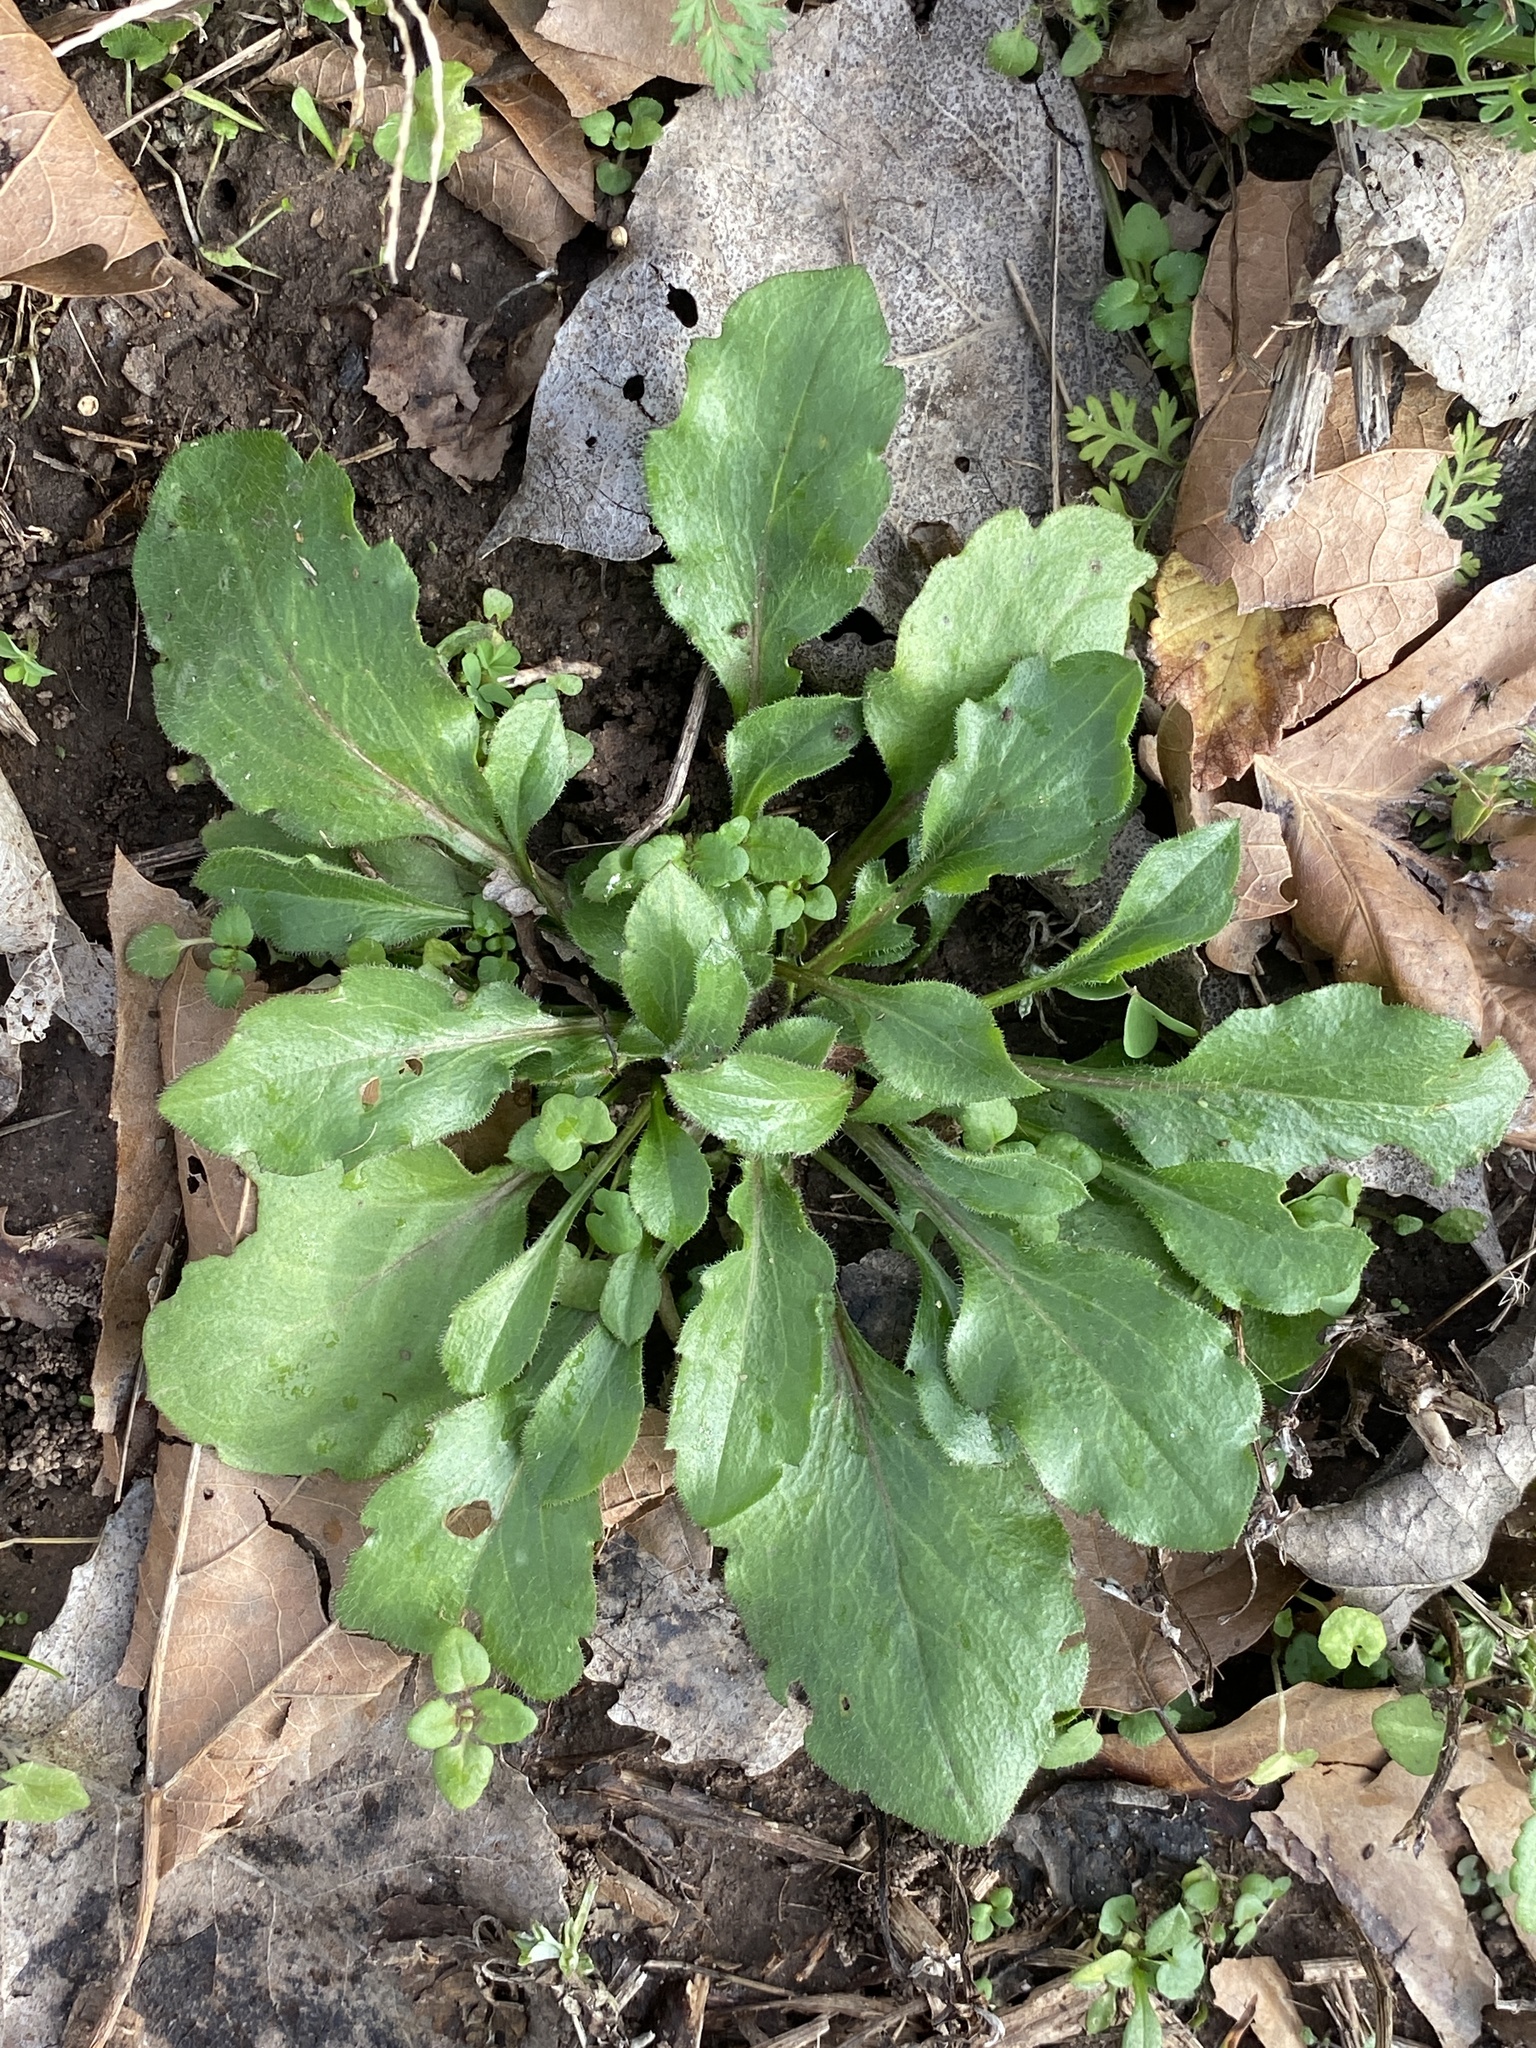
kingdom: Plantae
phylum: Tracheophyta
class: Magnoliopsida
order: Asterales
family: Asteraceae
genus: Erigeron
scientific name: Erigeron canadensis
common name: Canadian fleabane
